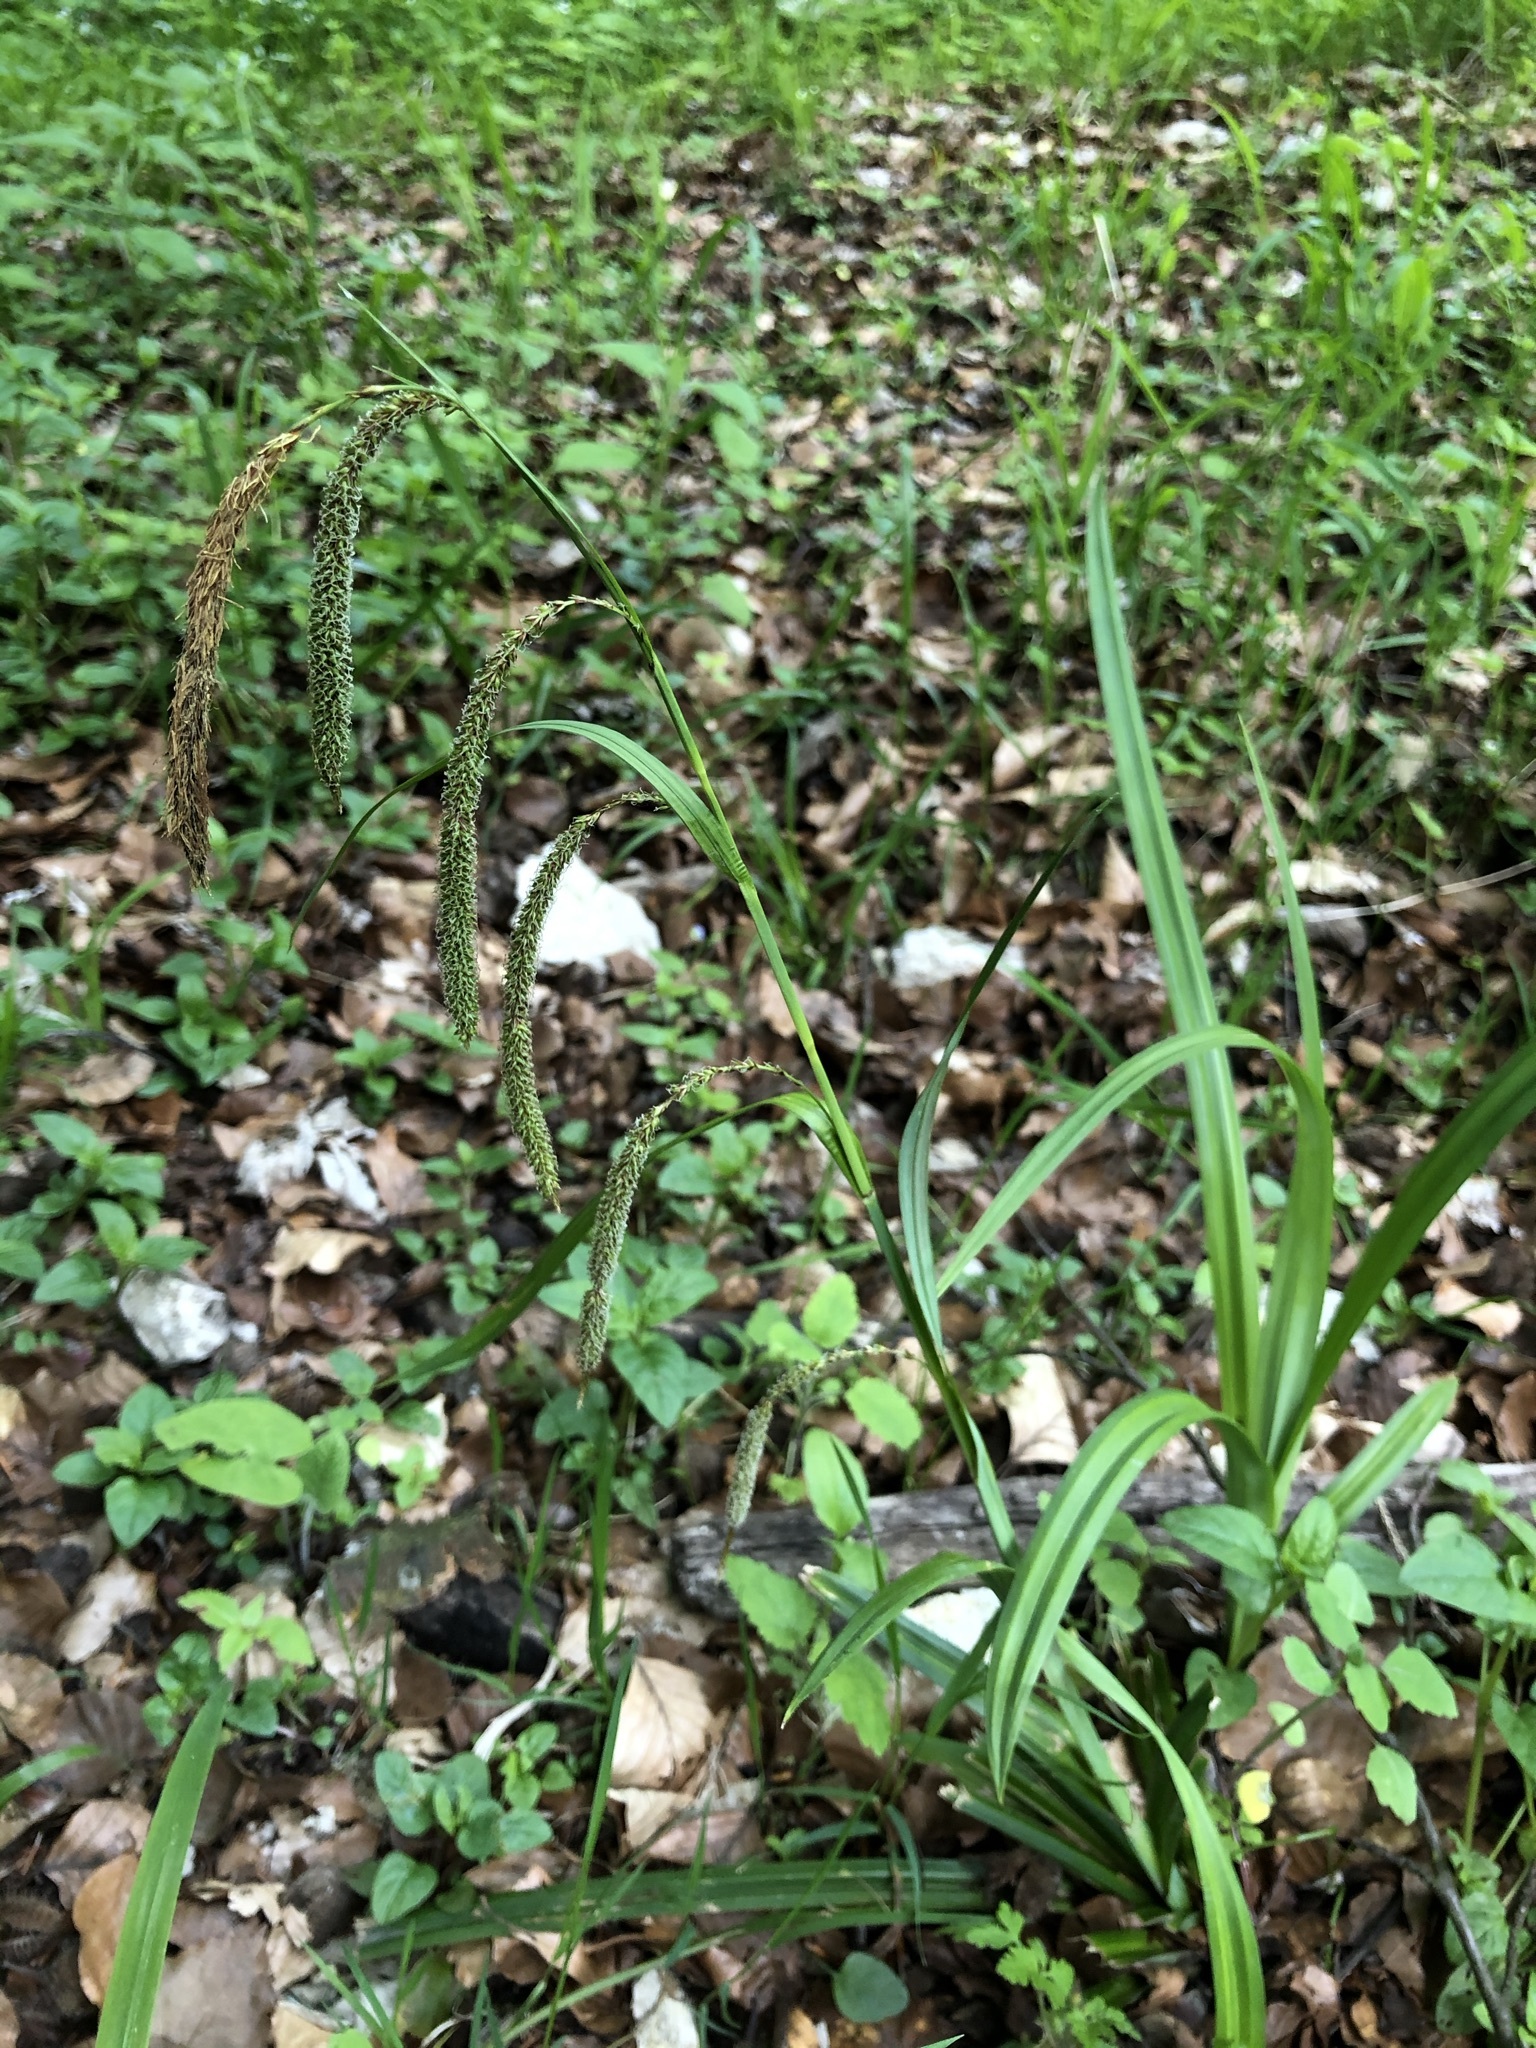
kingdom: Plantae
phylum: Tracheophyta
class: Liliopsida
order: Poales
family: Cyperaceae
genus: Carex
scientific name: Carex agastachys
